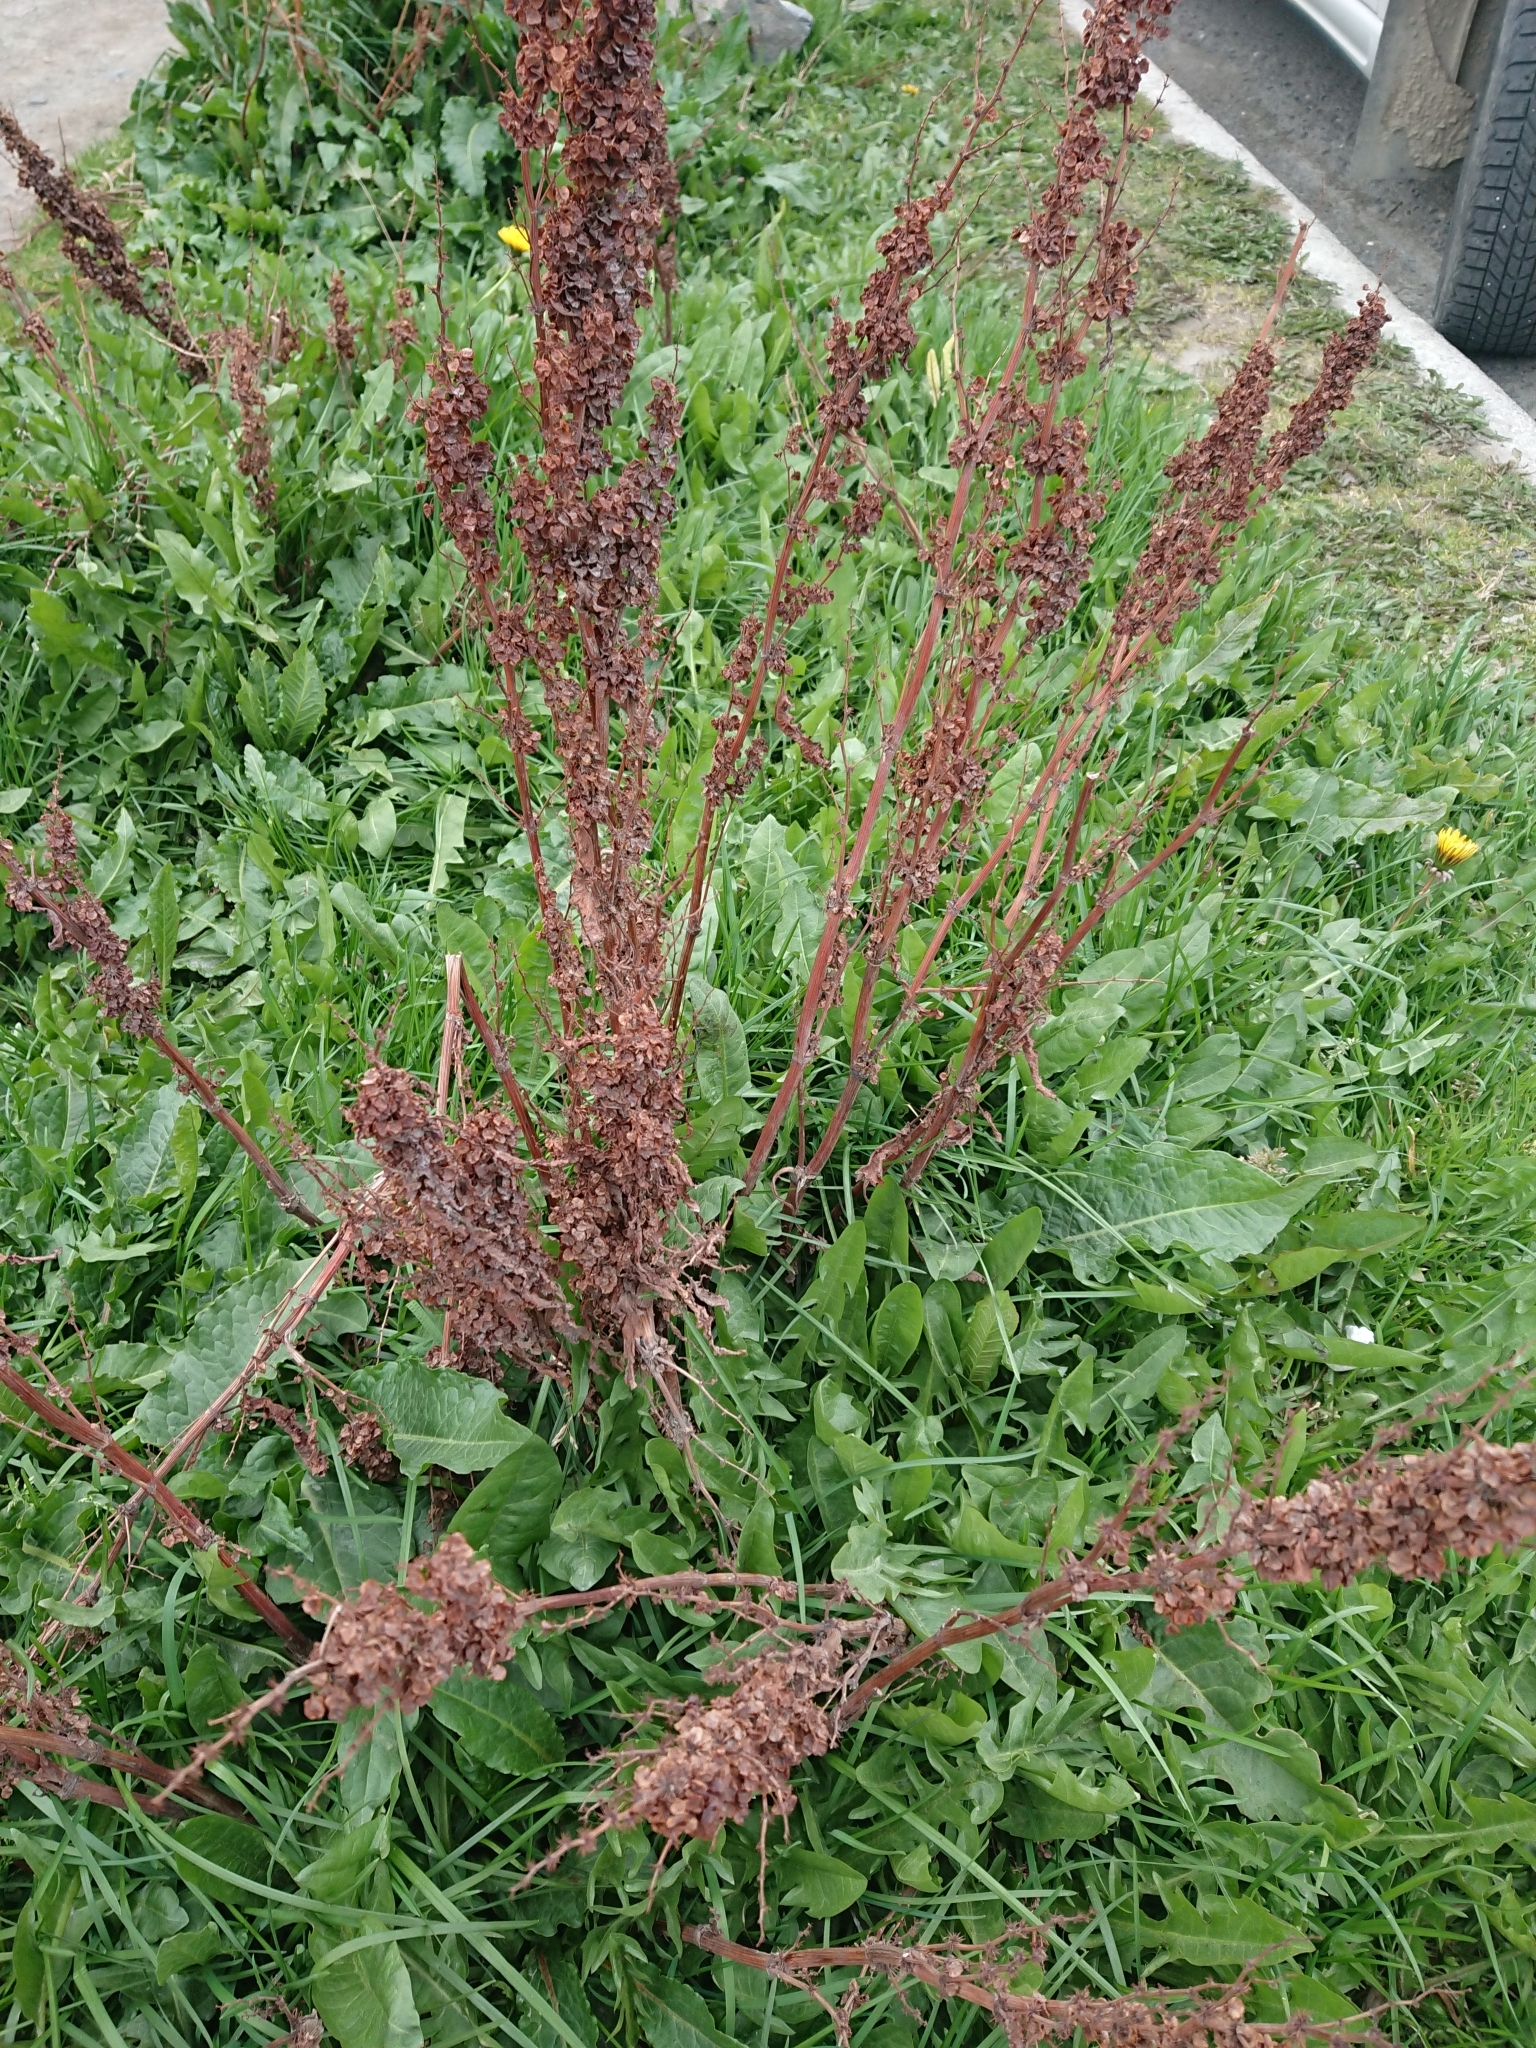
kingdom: Plantae
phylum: Tracheophyta
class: Magnoliopsida
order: Caryophyllales
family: Polygonaceae
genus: Rumex
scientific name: Rumex crispus
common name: Curled dock
